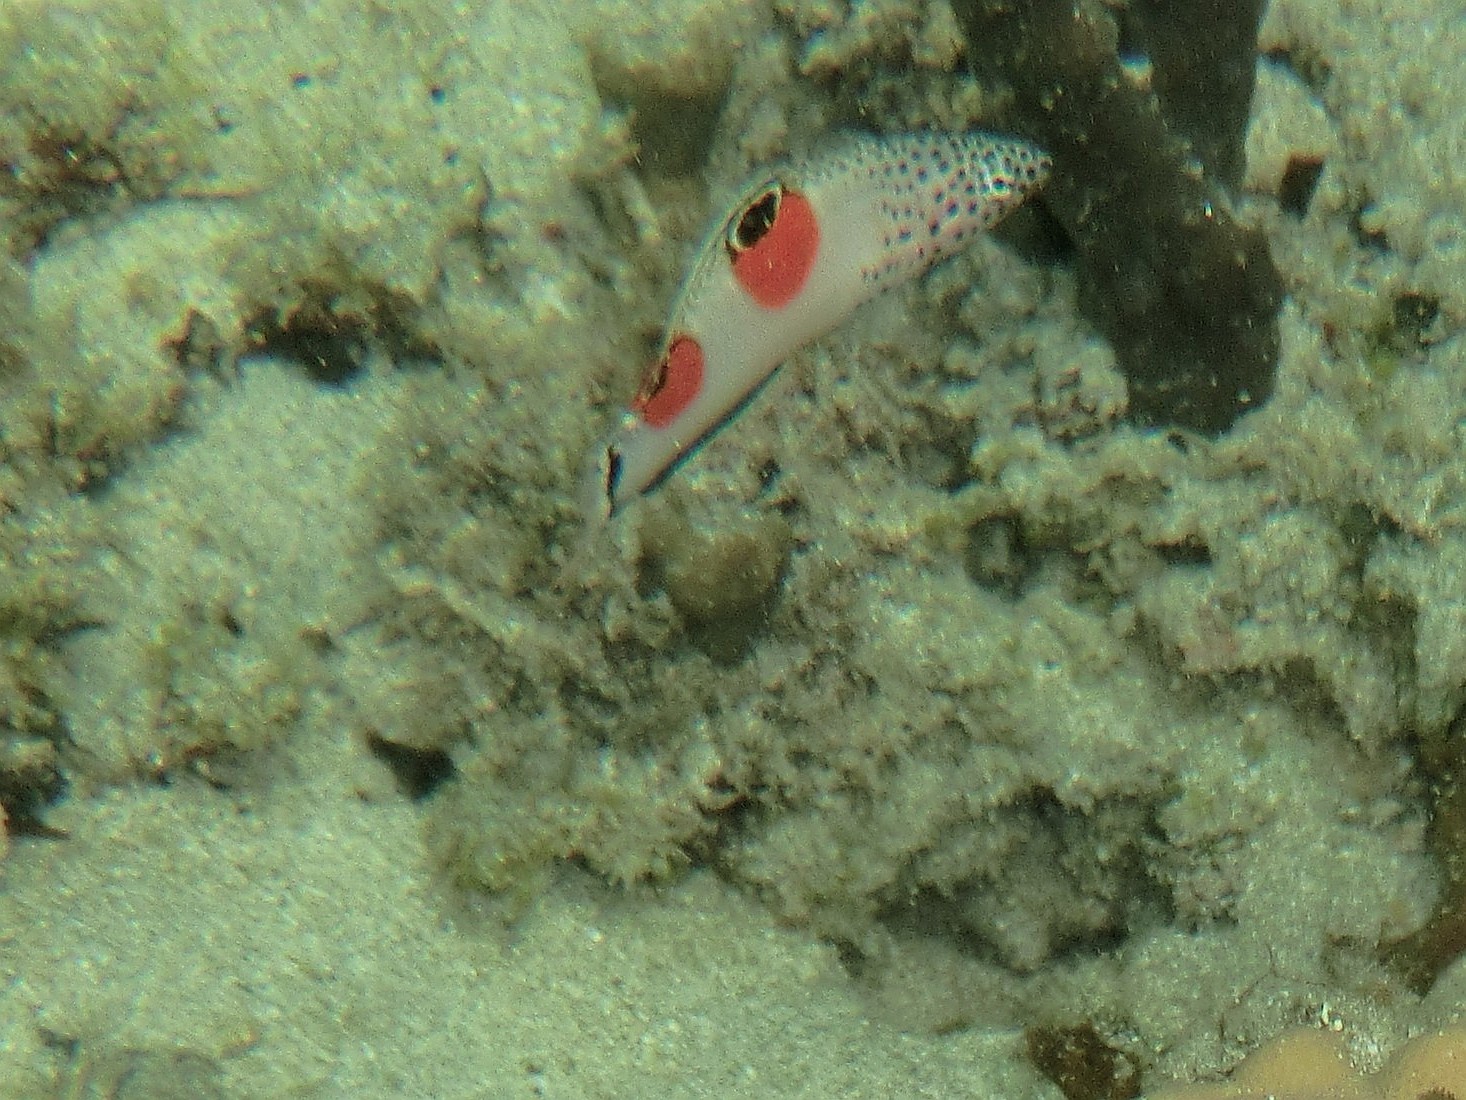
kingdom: Animalia
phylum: Chordata
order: Perciformes
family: Labridae
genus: Coris
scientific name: Coris aygula
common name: Clown coris
